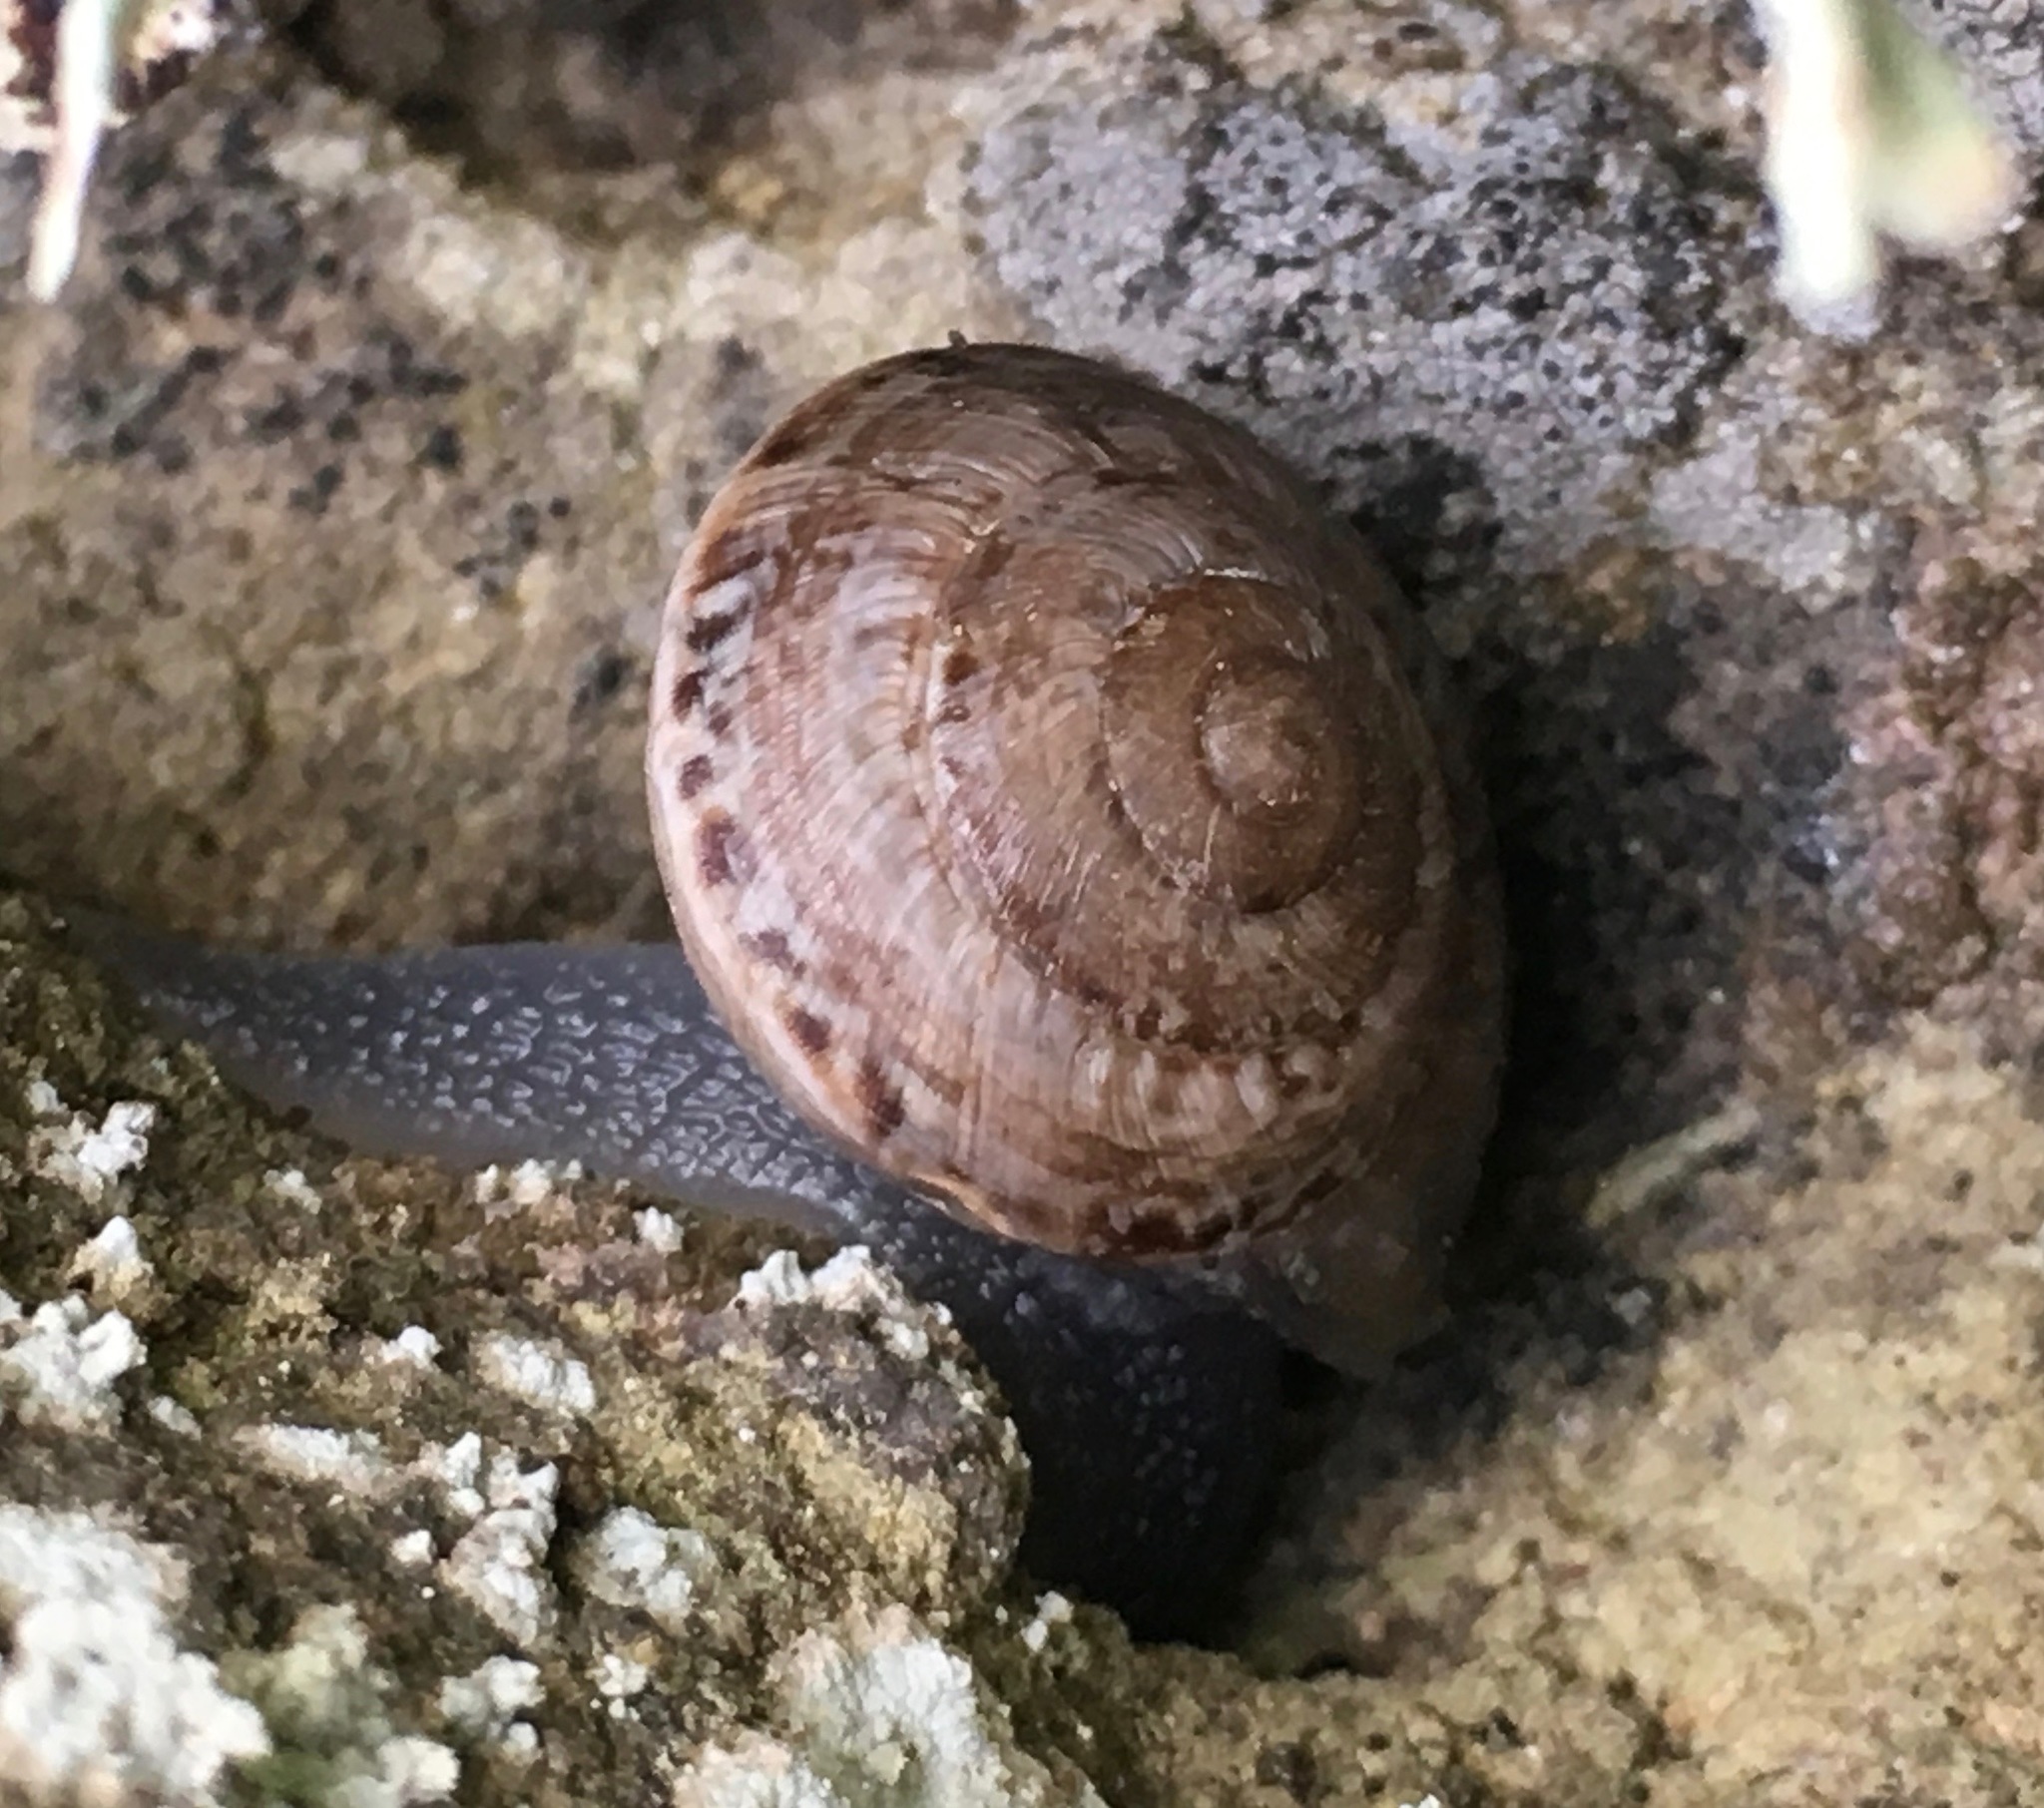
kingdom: Animalia
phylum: Mollusca
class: Gastropoda
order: Stylommatophora
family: Xanthonychidae
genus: Xerarionta
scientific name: Xerarionta tryoni
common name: Bicolor cactus snail
